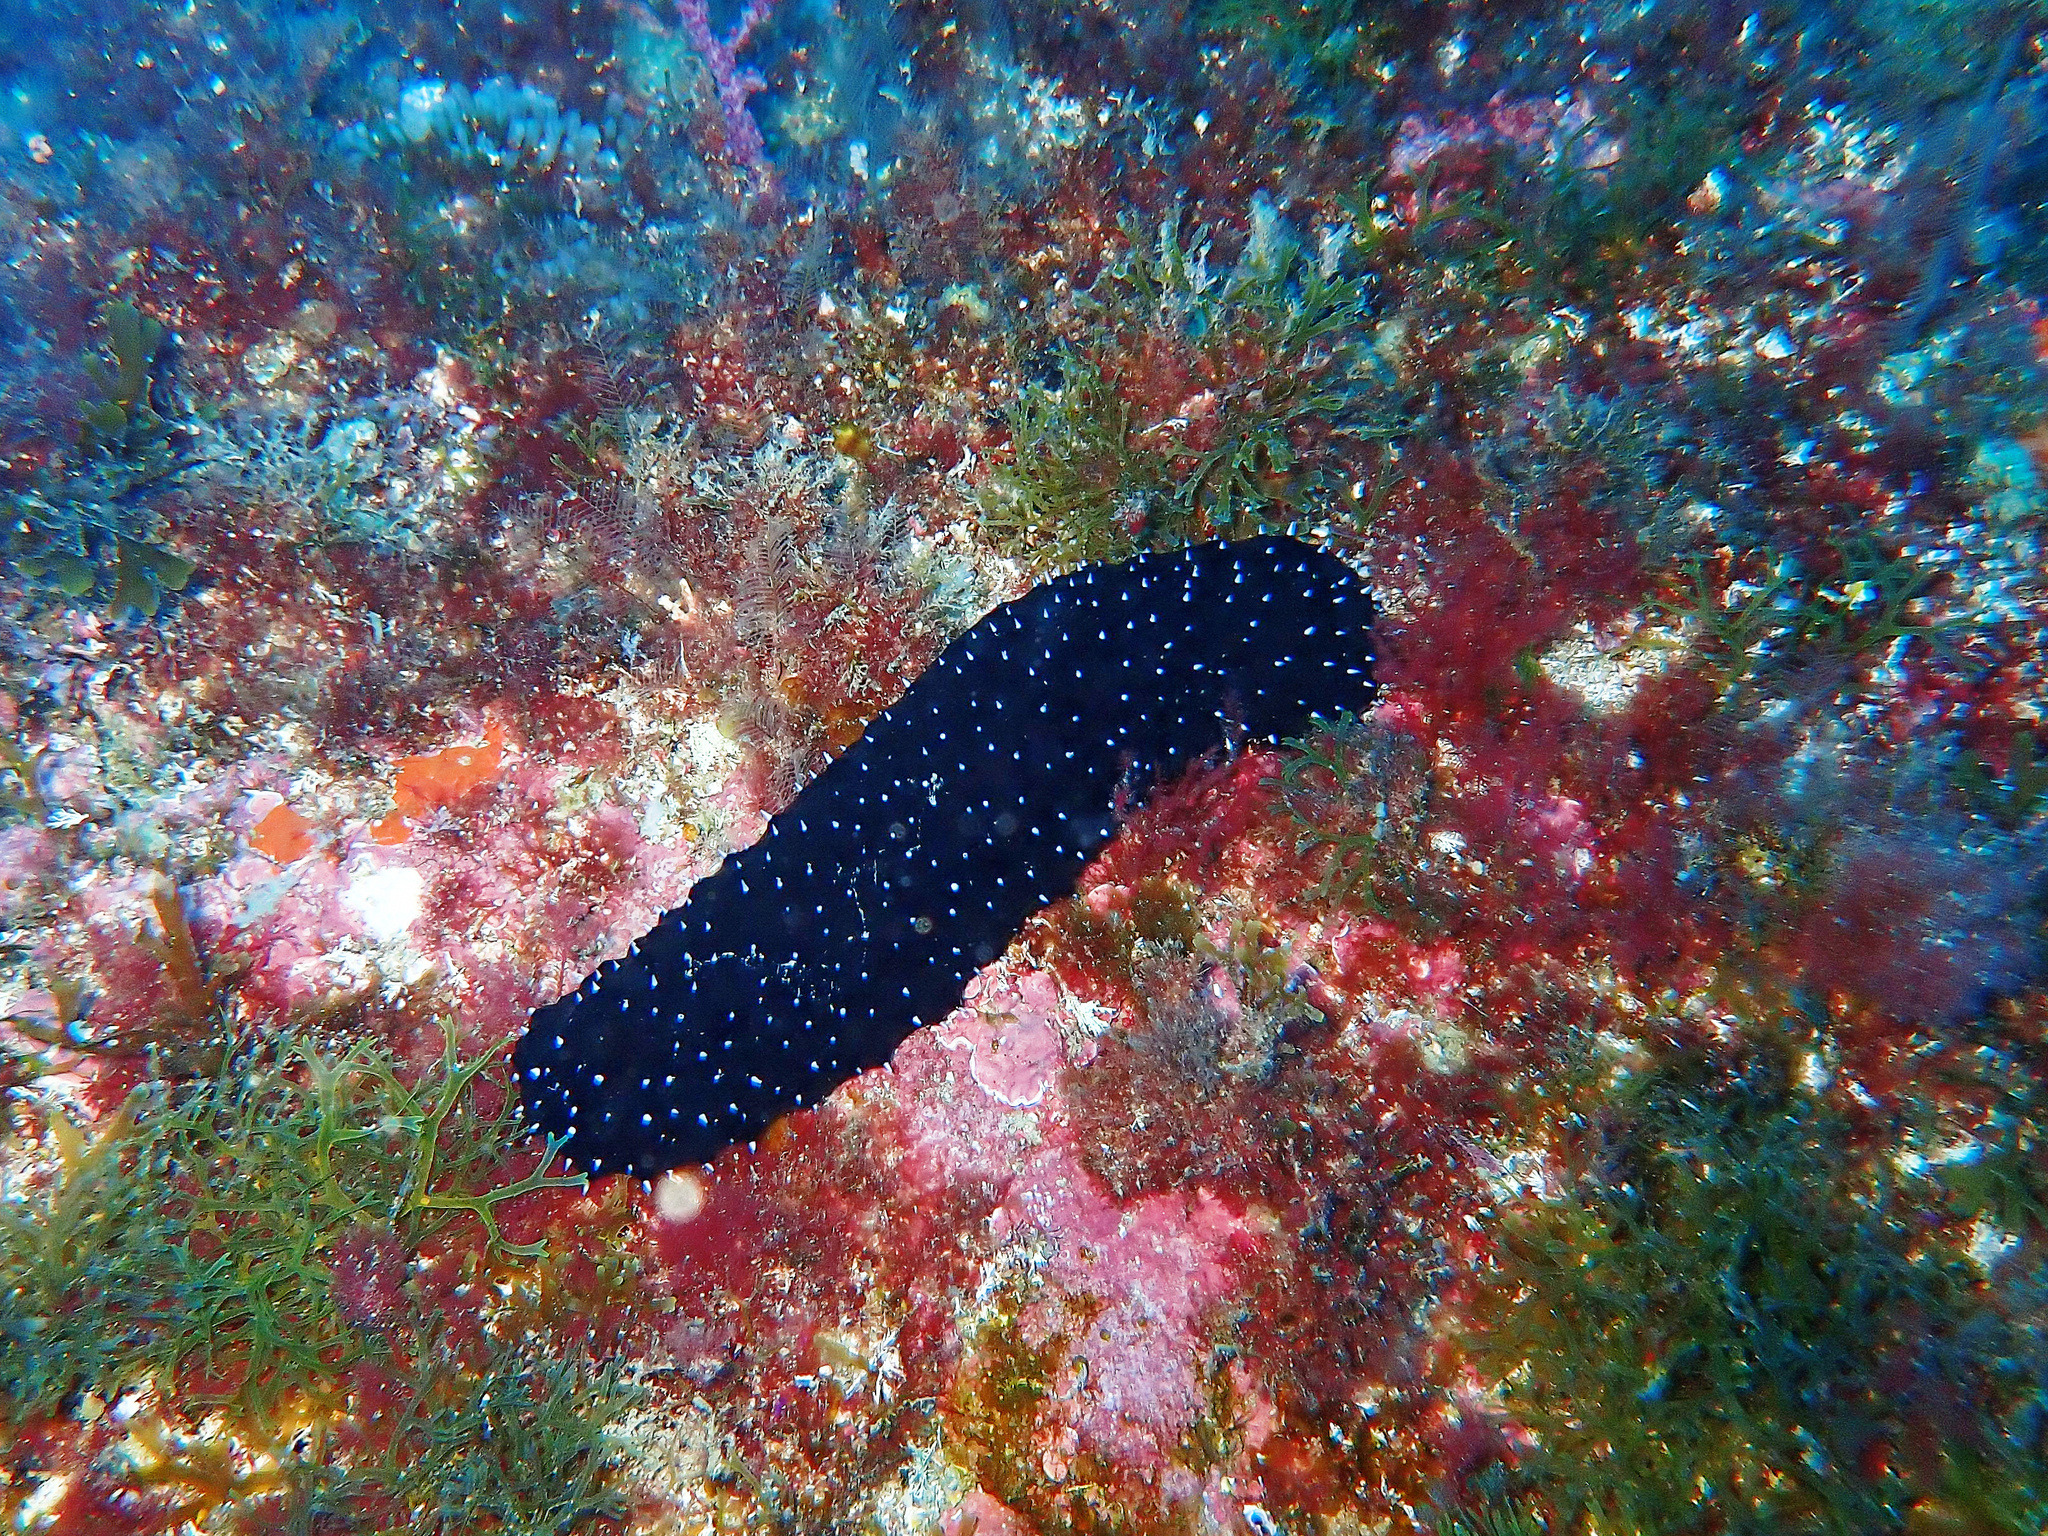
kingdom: Animalia
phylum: Echinodermata
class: Holothuroidea
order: Holothuriida
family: Holothuriidae
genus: Holothuria
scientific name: Holothuria forskali
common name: Black sea cucumber
